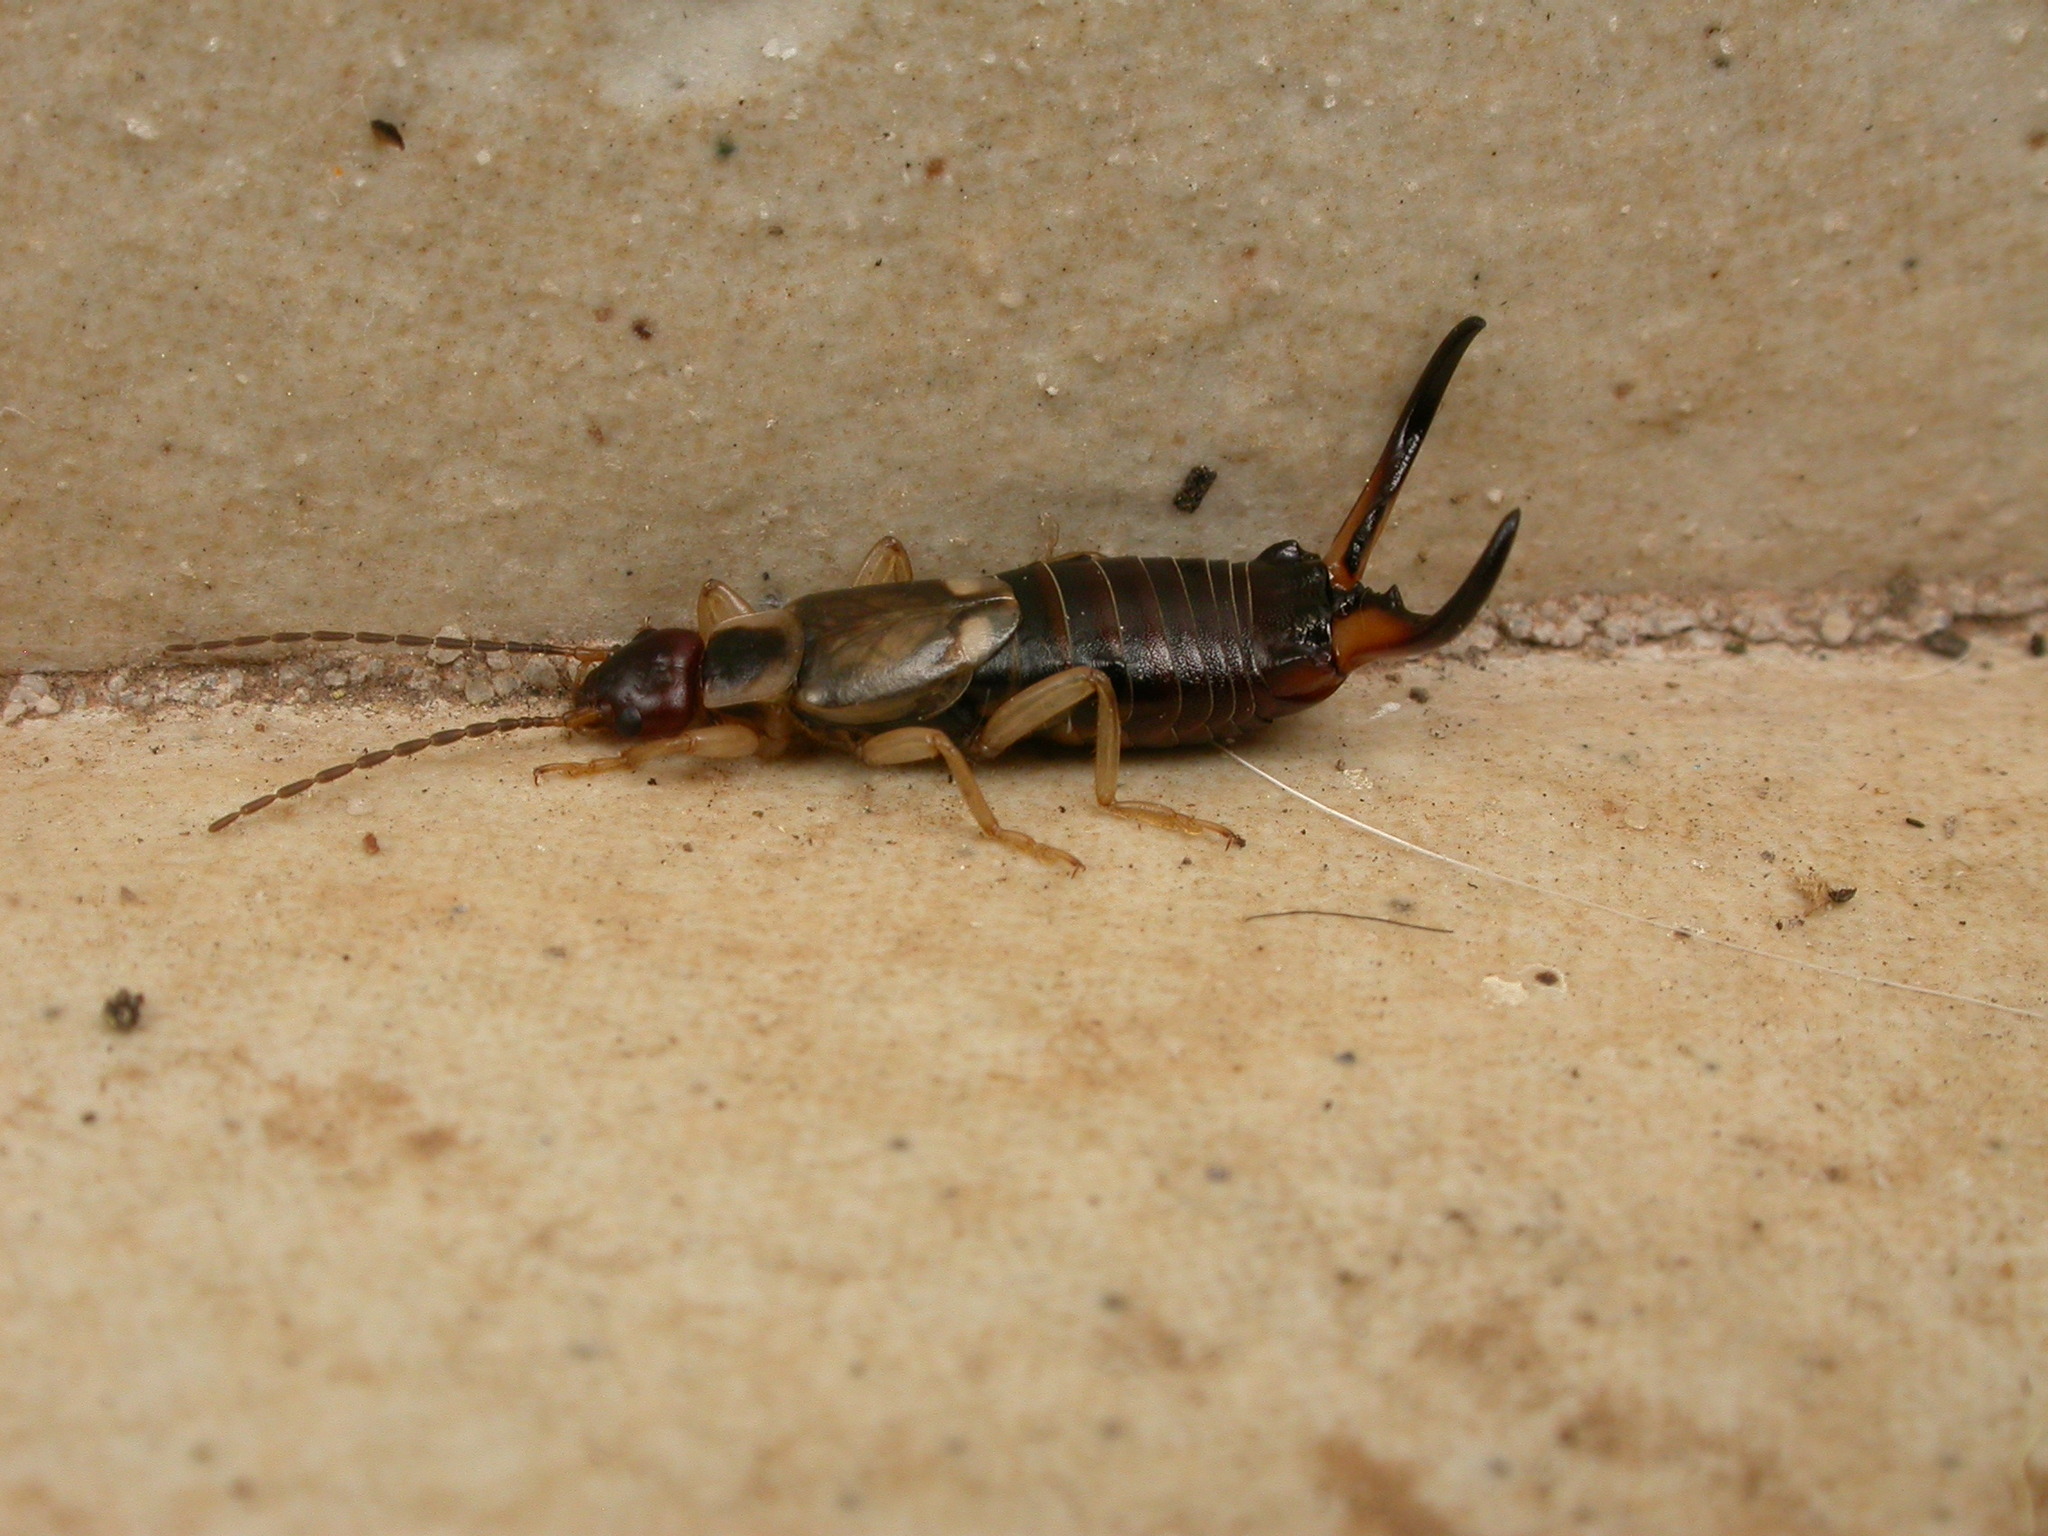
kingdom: Animalia
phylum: Arthropoda
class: Insecta
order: Dermaptera
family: Forficulidae
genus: Forficula
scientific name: Forficula dentata
